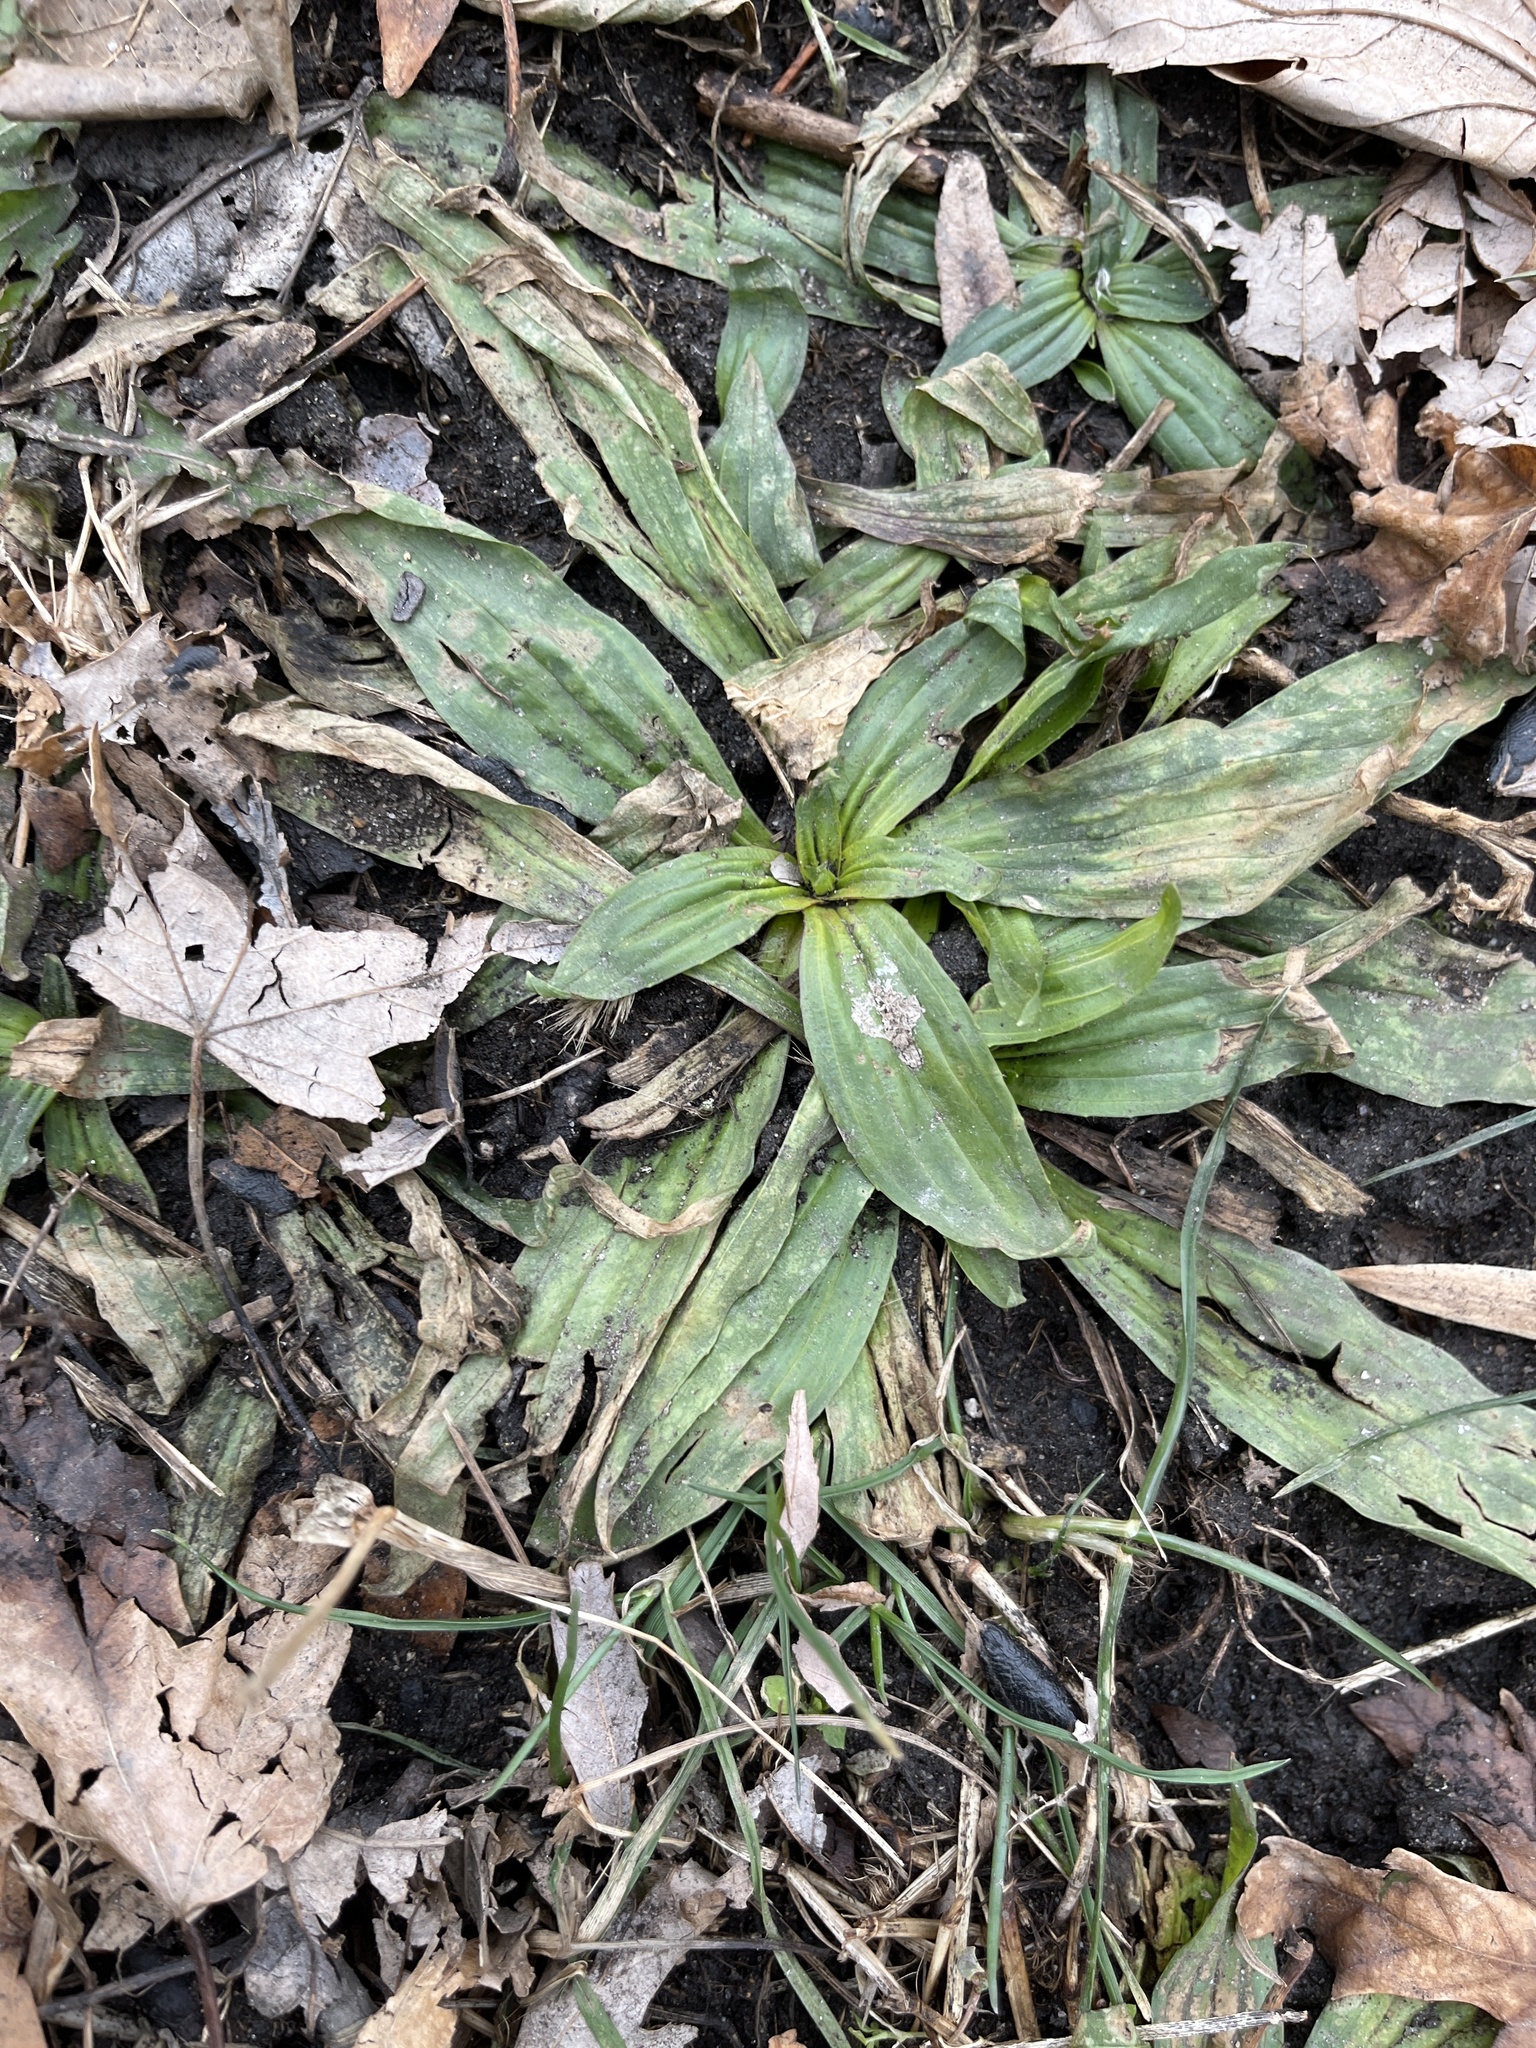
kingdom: Plantae
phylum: Tracheophyta
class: Magnoliopsida
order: Lamiales
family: Plantaginaceae
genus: Plantago
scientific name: Plantago lanceolata
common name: Ribwort plantain
